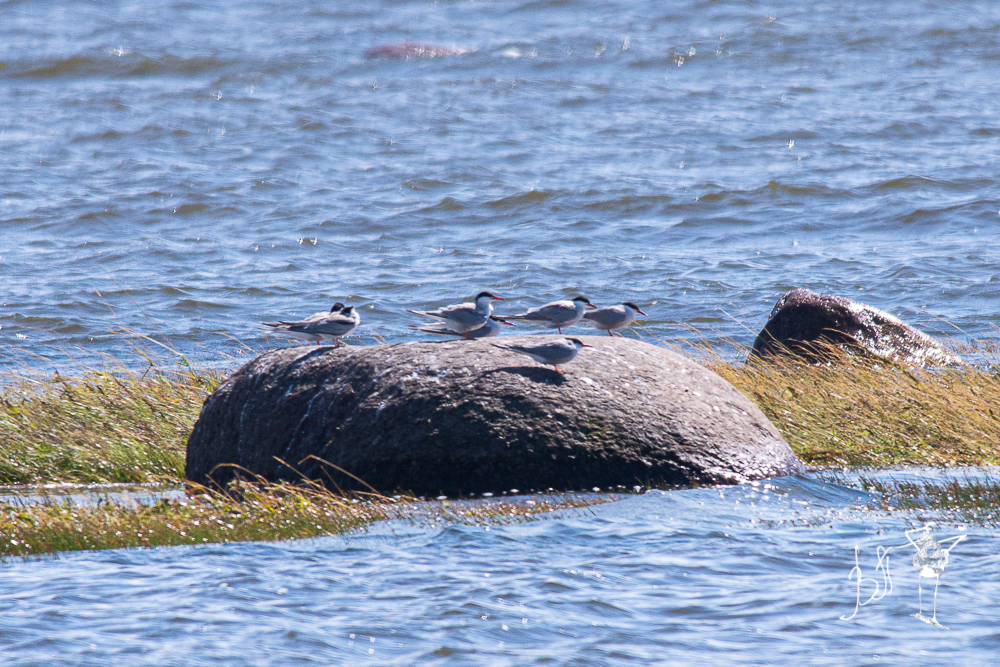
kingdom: Animalia
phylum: Chordata
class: Aves
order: Charadriiformes
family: Laridae
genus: Sterna
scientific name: Sterna hirundo
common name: Common tern
